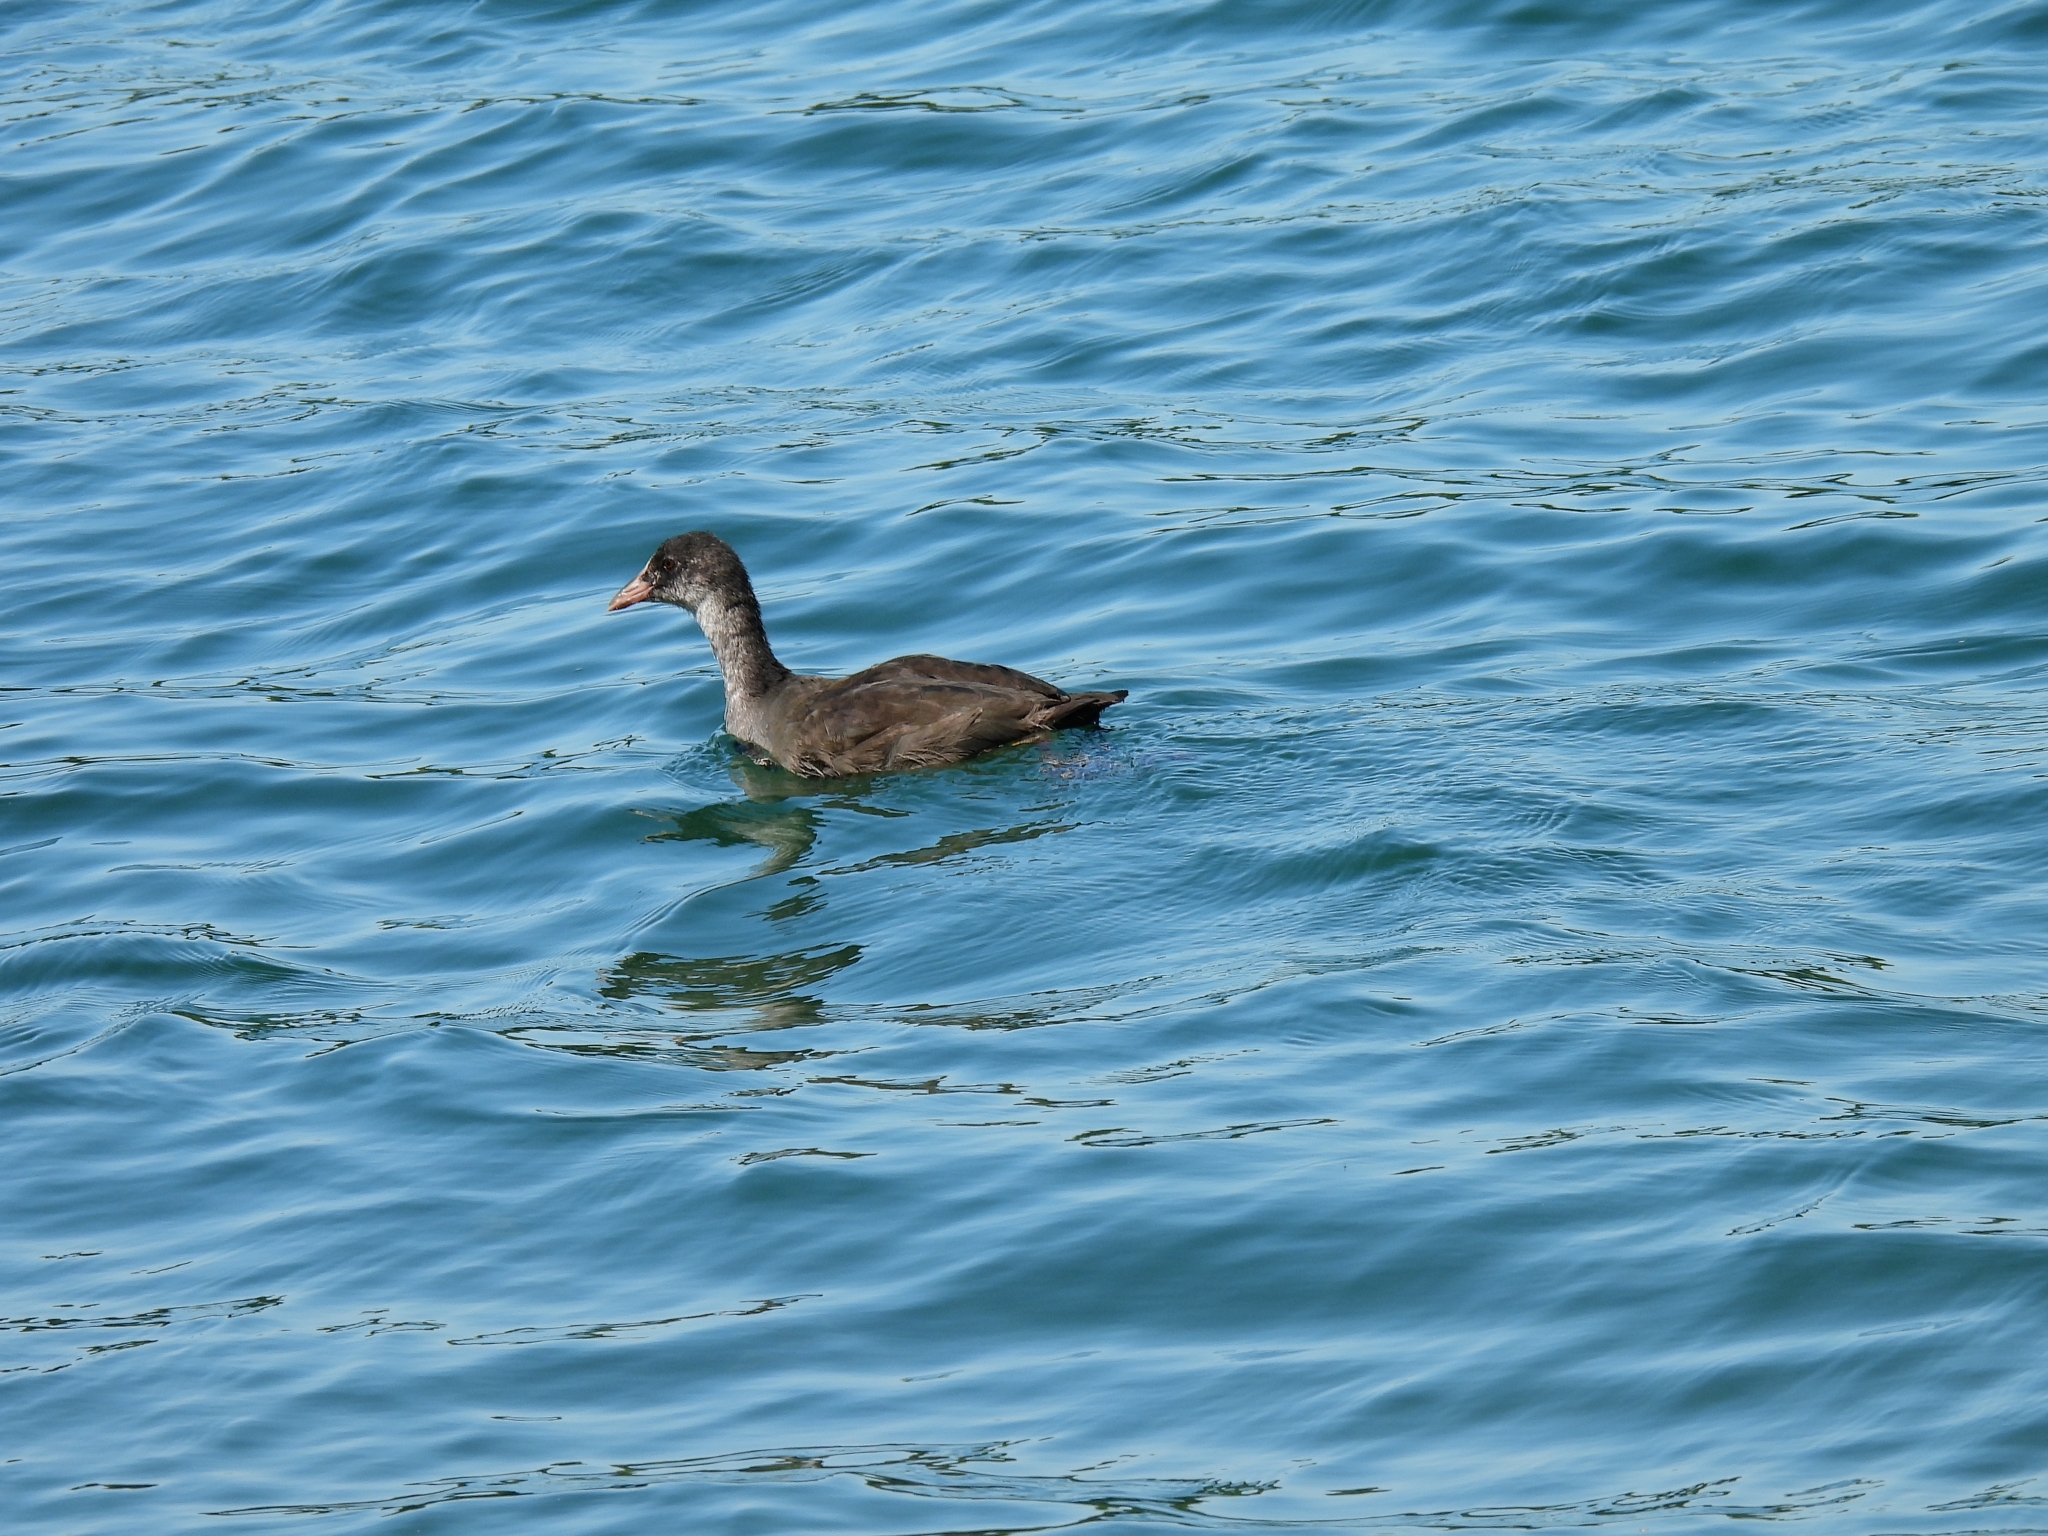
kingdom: Animalia
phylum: Chordata
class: Aves
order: Gruiformes
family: Rallidae
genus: Fulica
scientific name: Fulica atra
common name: Eurasian coot
